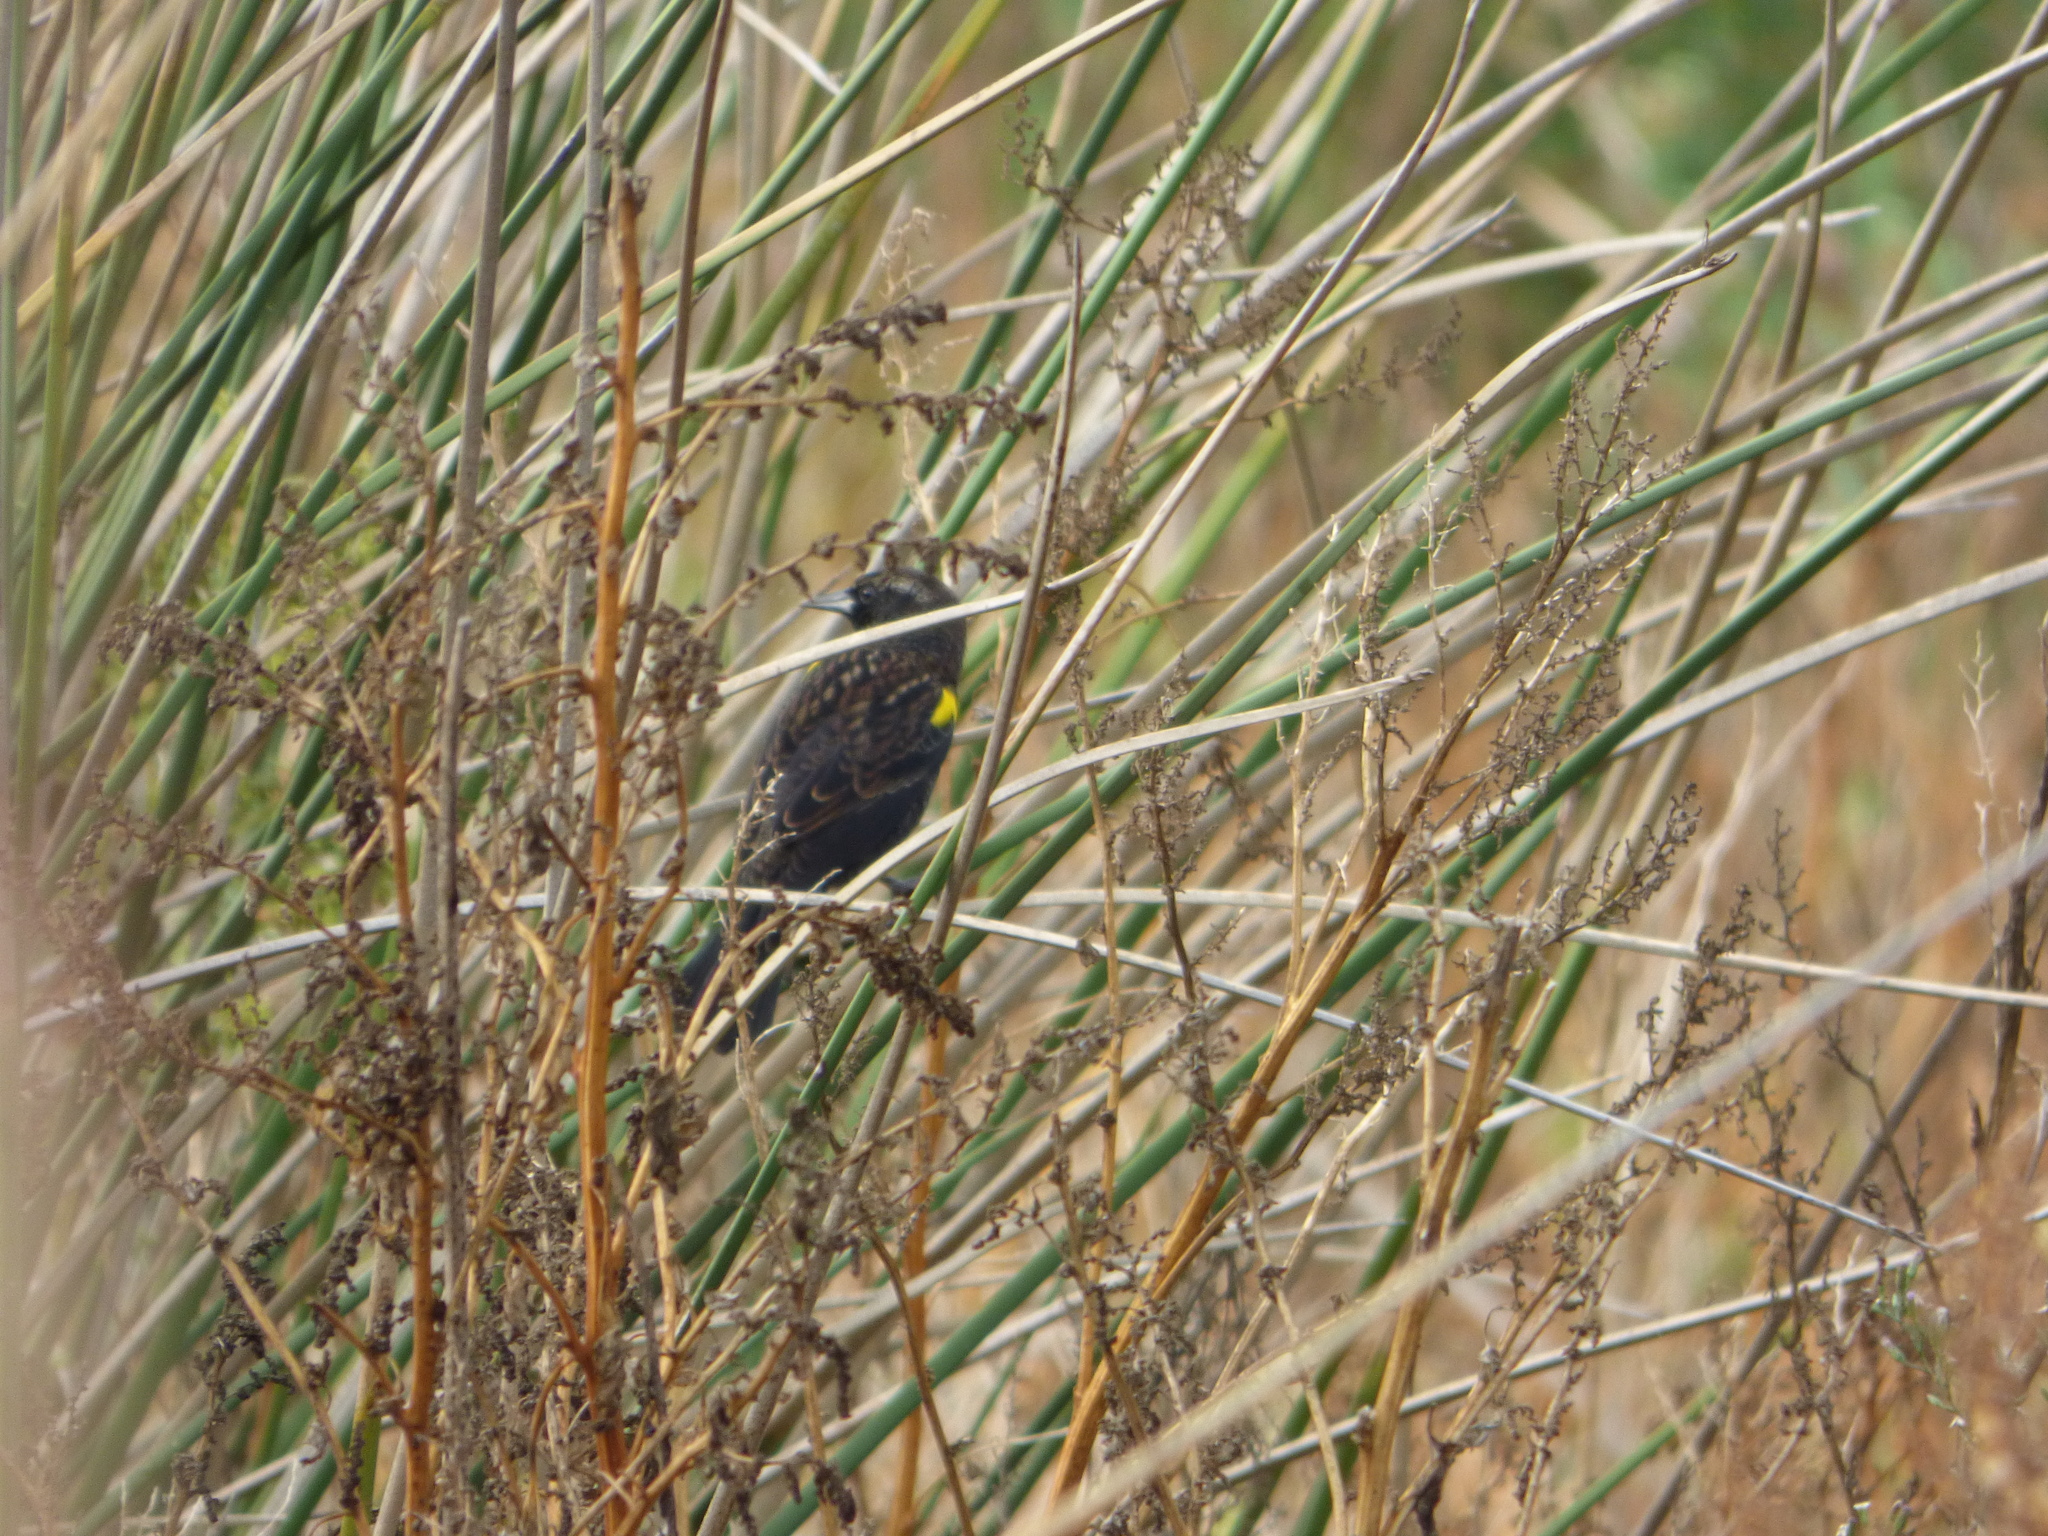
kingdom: Animalia
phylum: Chordata
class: Aves
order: Passeriformes
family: Icteridae
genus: Agelasticus
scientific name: Agelasticus thilius
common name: Yellow-winged blackbird
